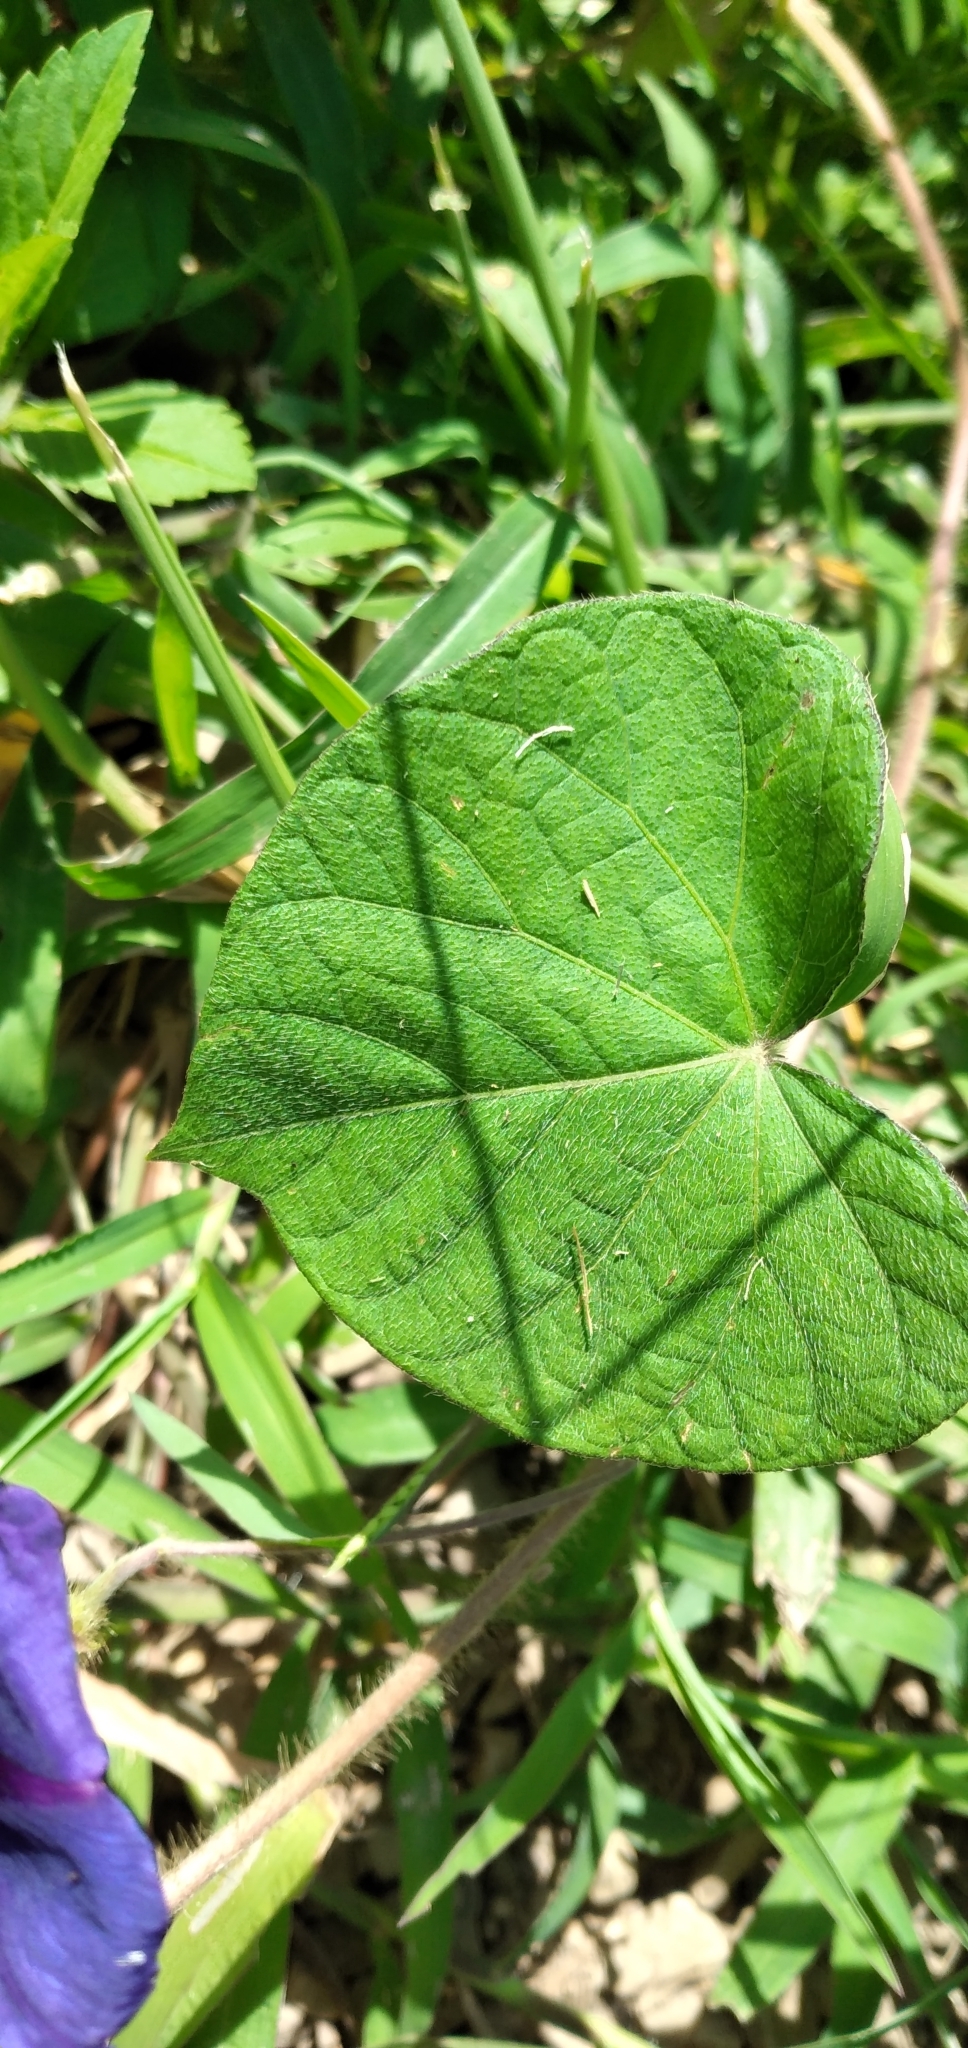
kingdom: Plantae
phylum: Tracheophyta
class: Magnoliopsida
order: Solanales
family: Convolvulaceae
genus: Ipomoea
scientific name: Ipomoea purpurea
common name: Common morning-glory
